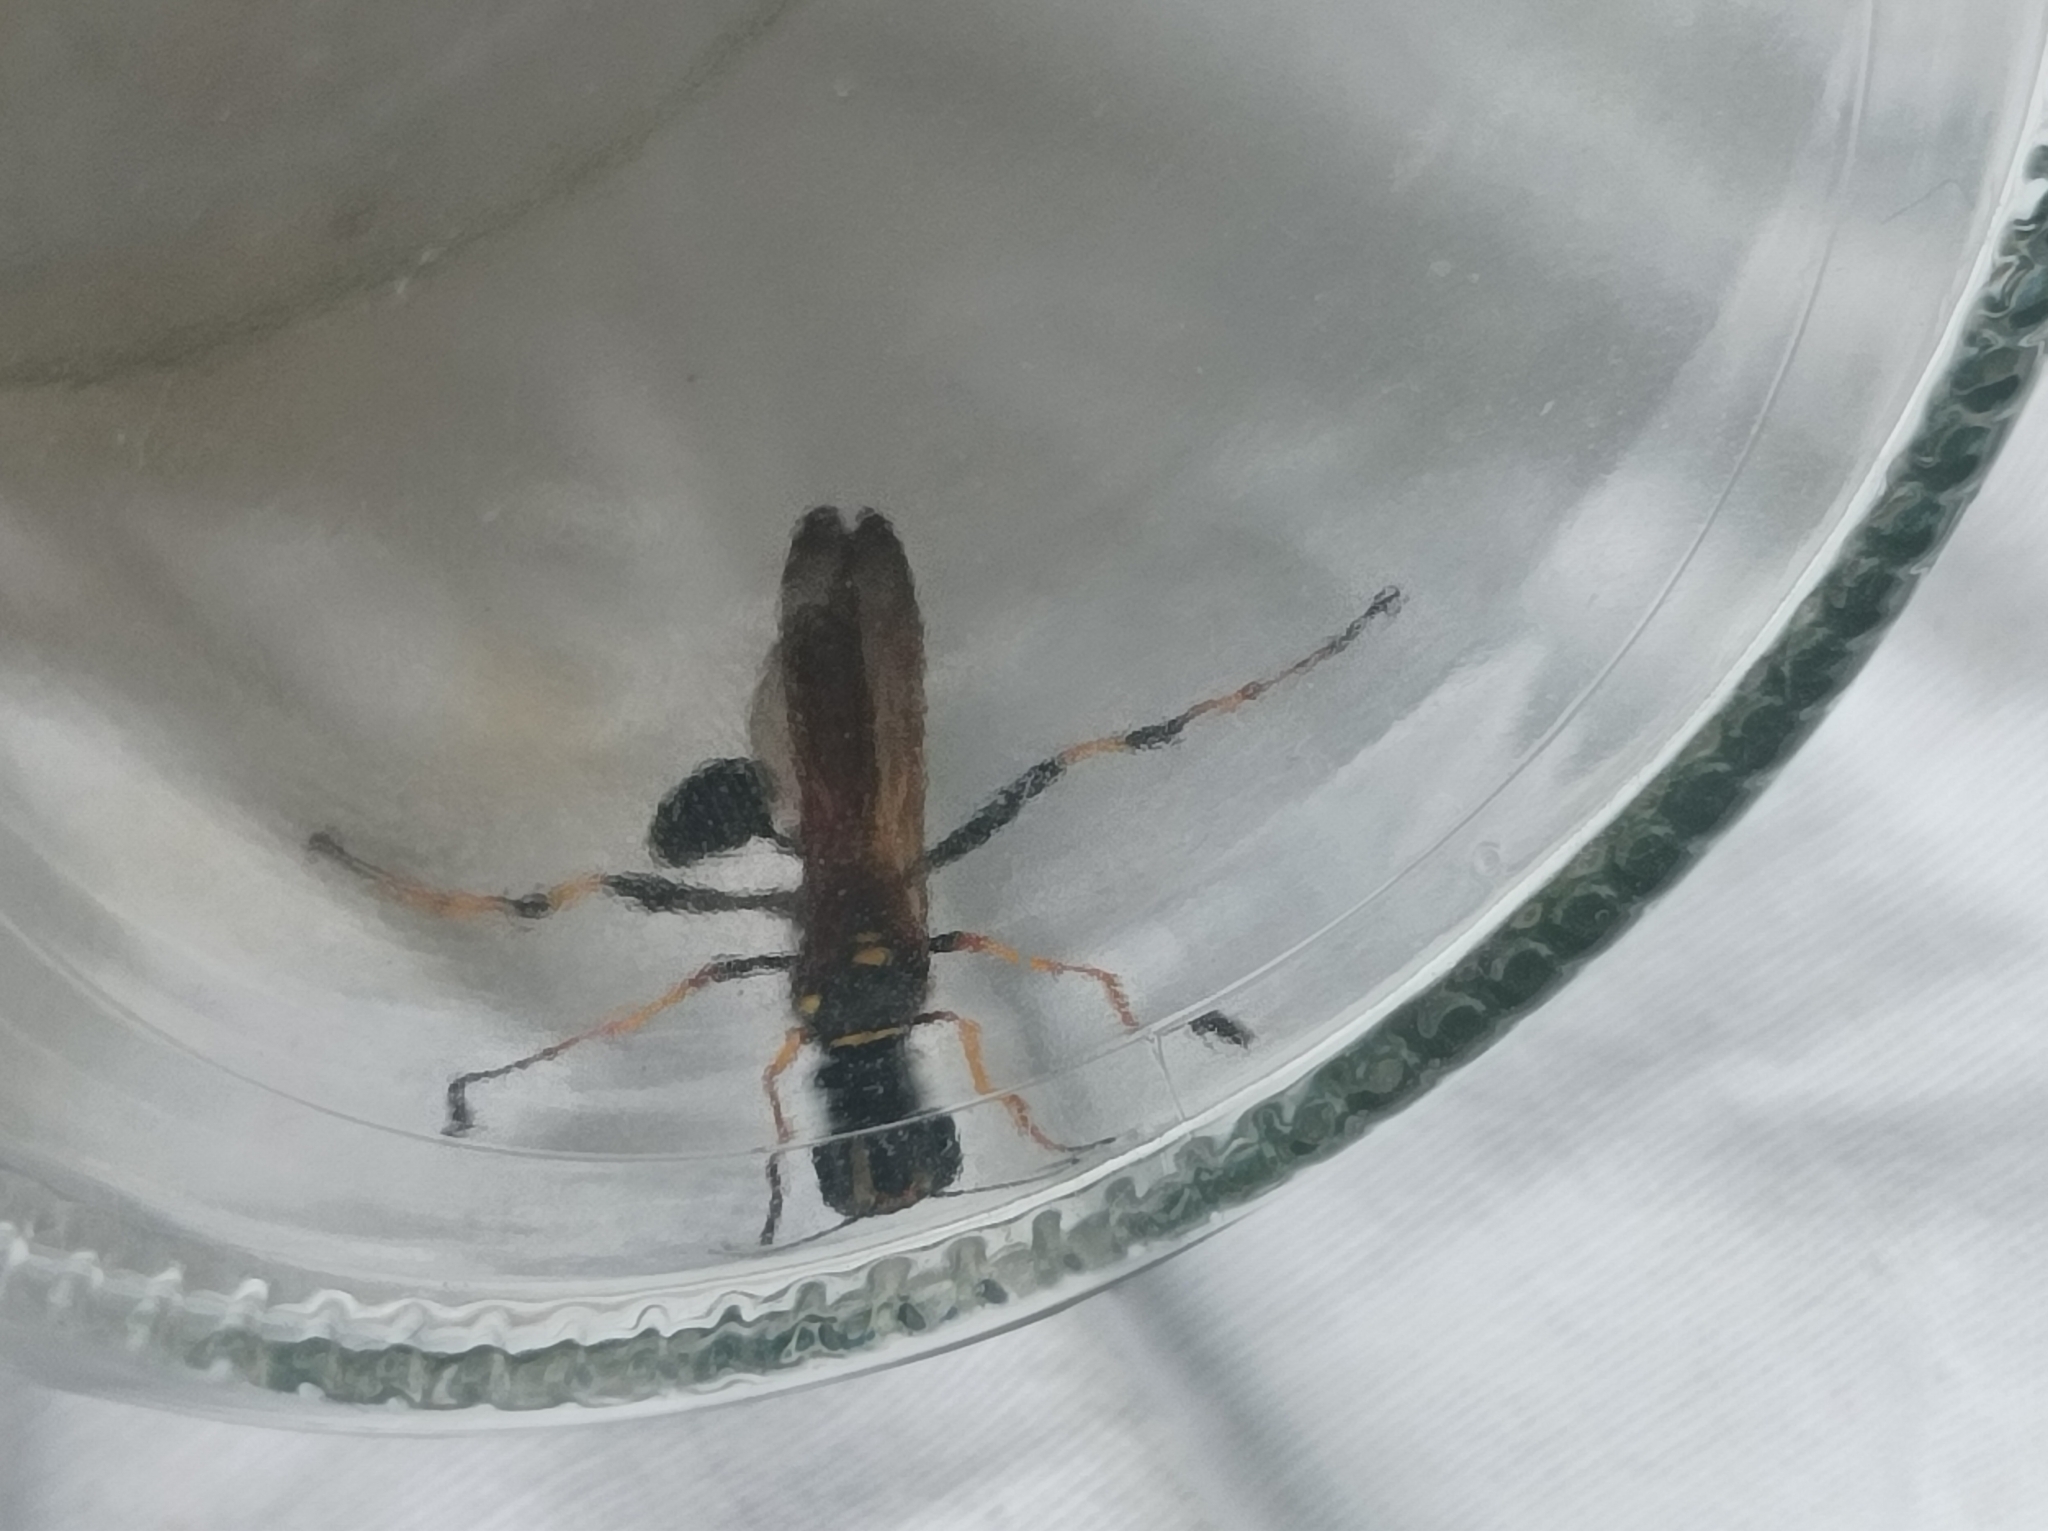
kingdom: Animalia
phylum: Arthropoda
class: Insecta
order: Hymenoptera
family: Sphecidae
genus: Sceliphron
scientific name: Sceliphron caementarium
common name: Mud dauber
